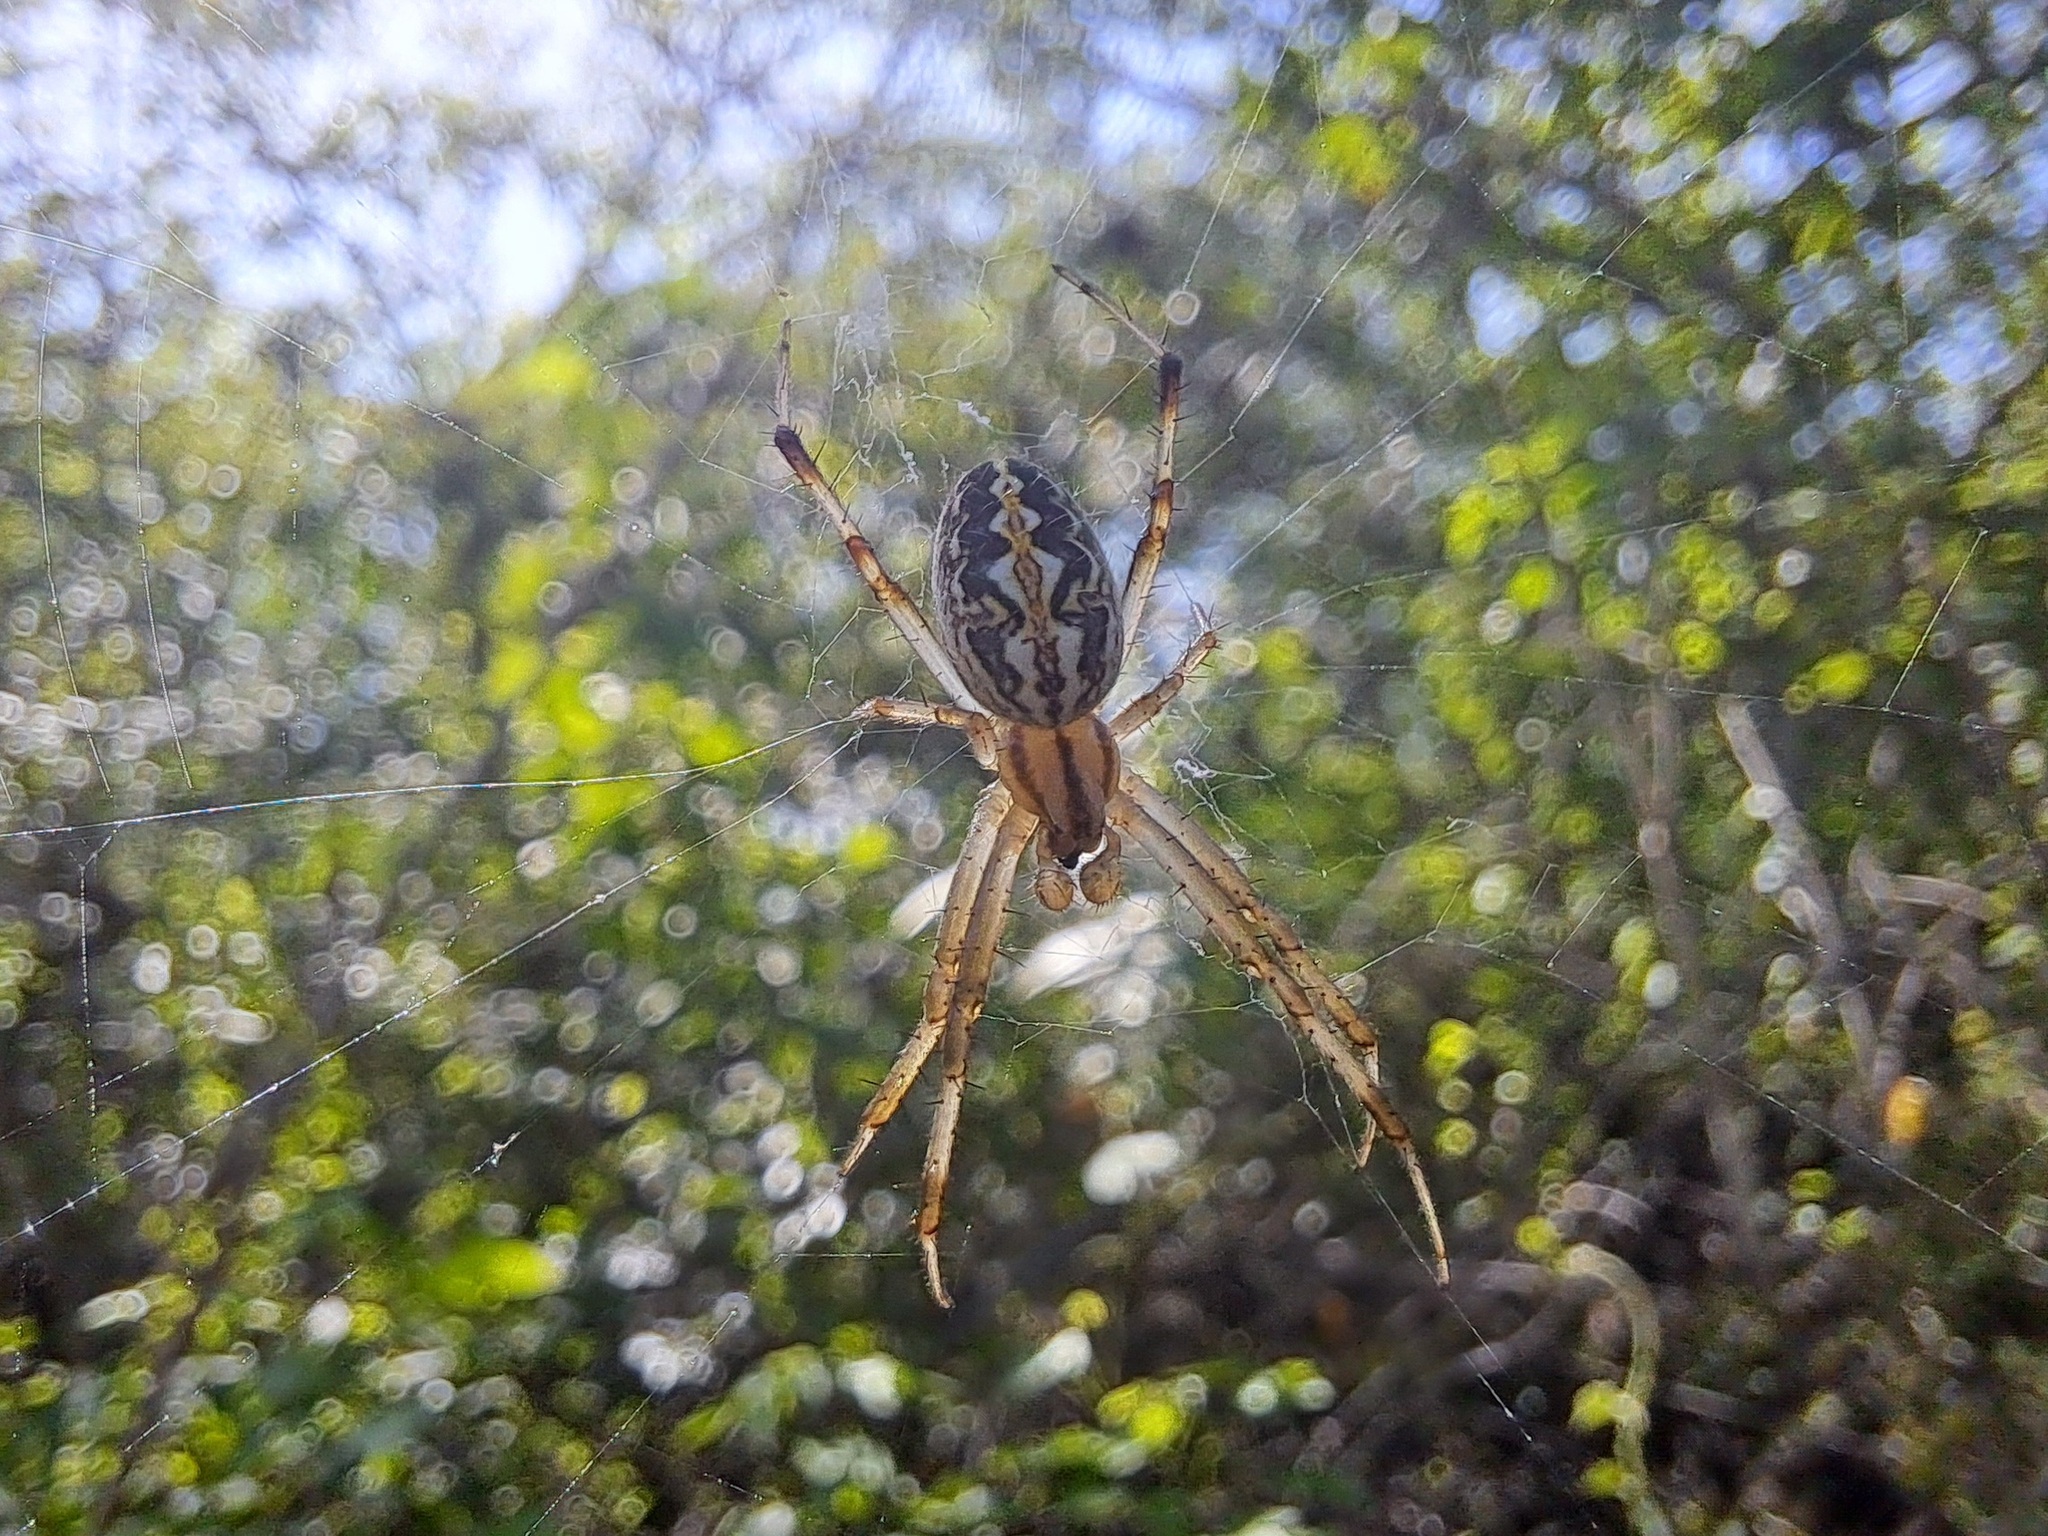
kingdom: Animalia
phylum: Arthropoda
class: Arachnida
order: Araneae
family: Araneidae
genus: Neoscona
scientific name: Neoscona oaxacensis
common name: Orb weavers
